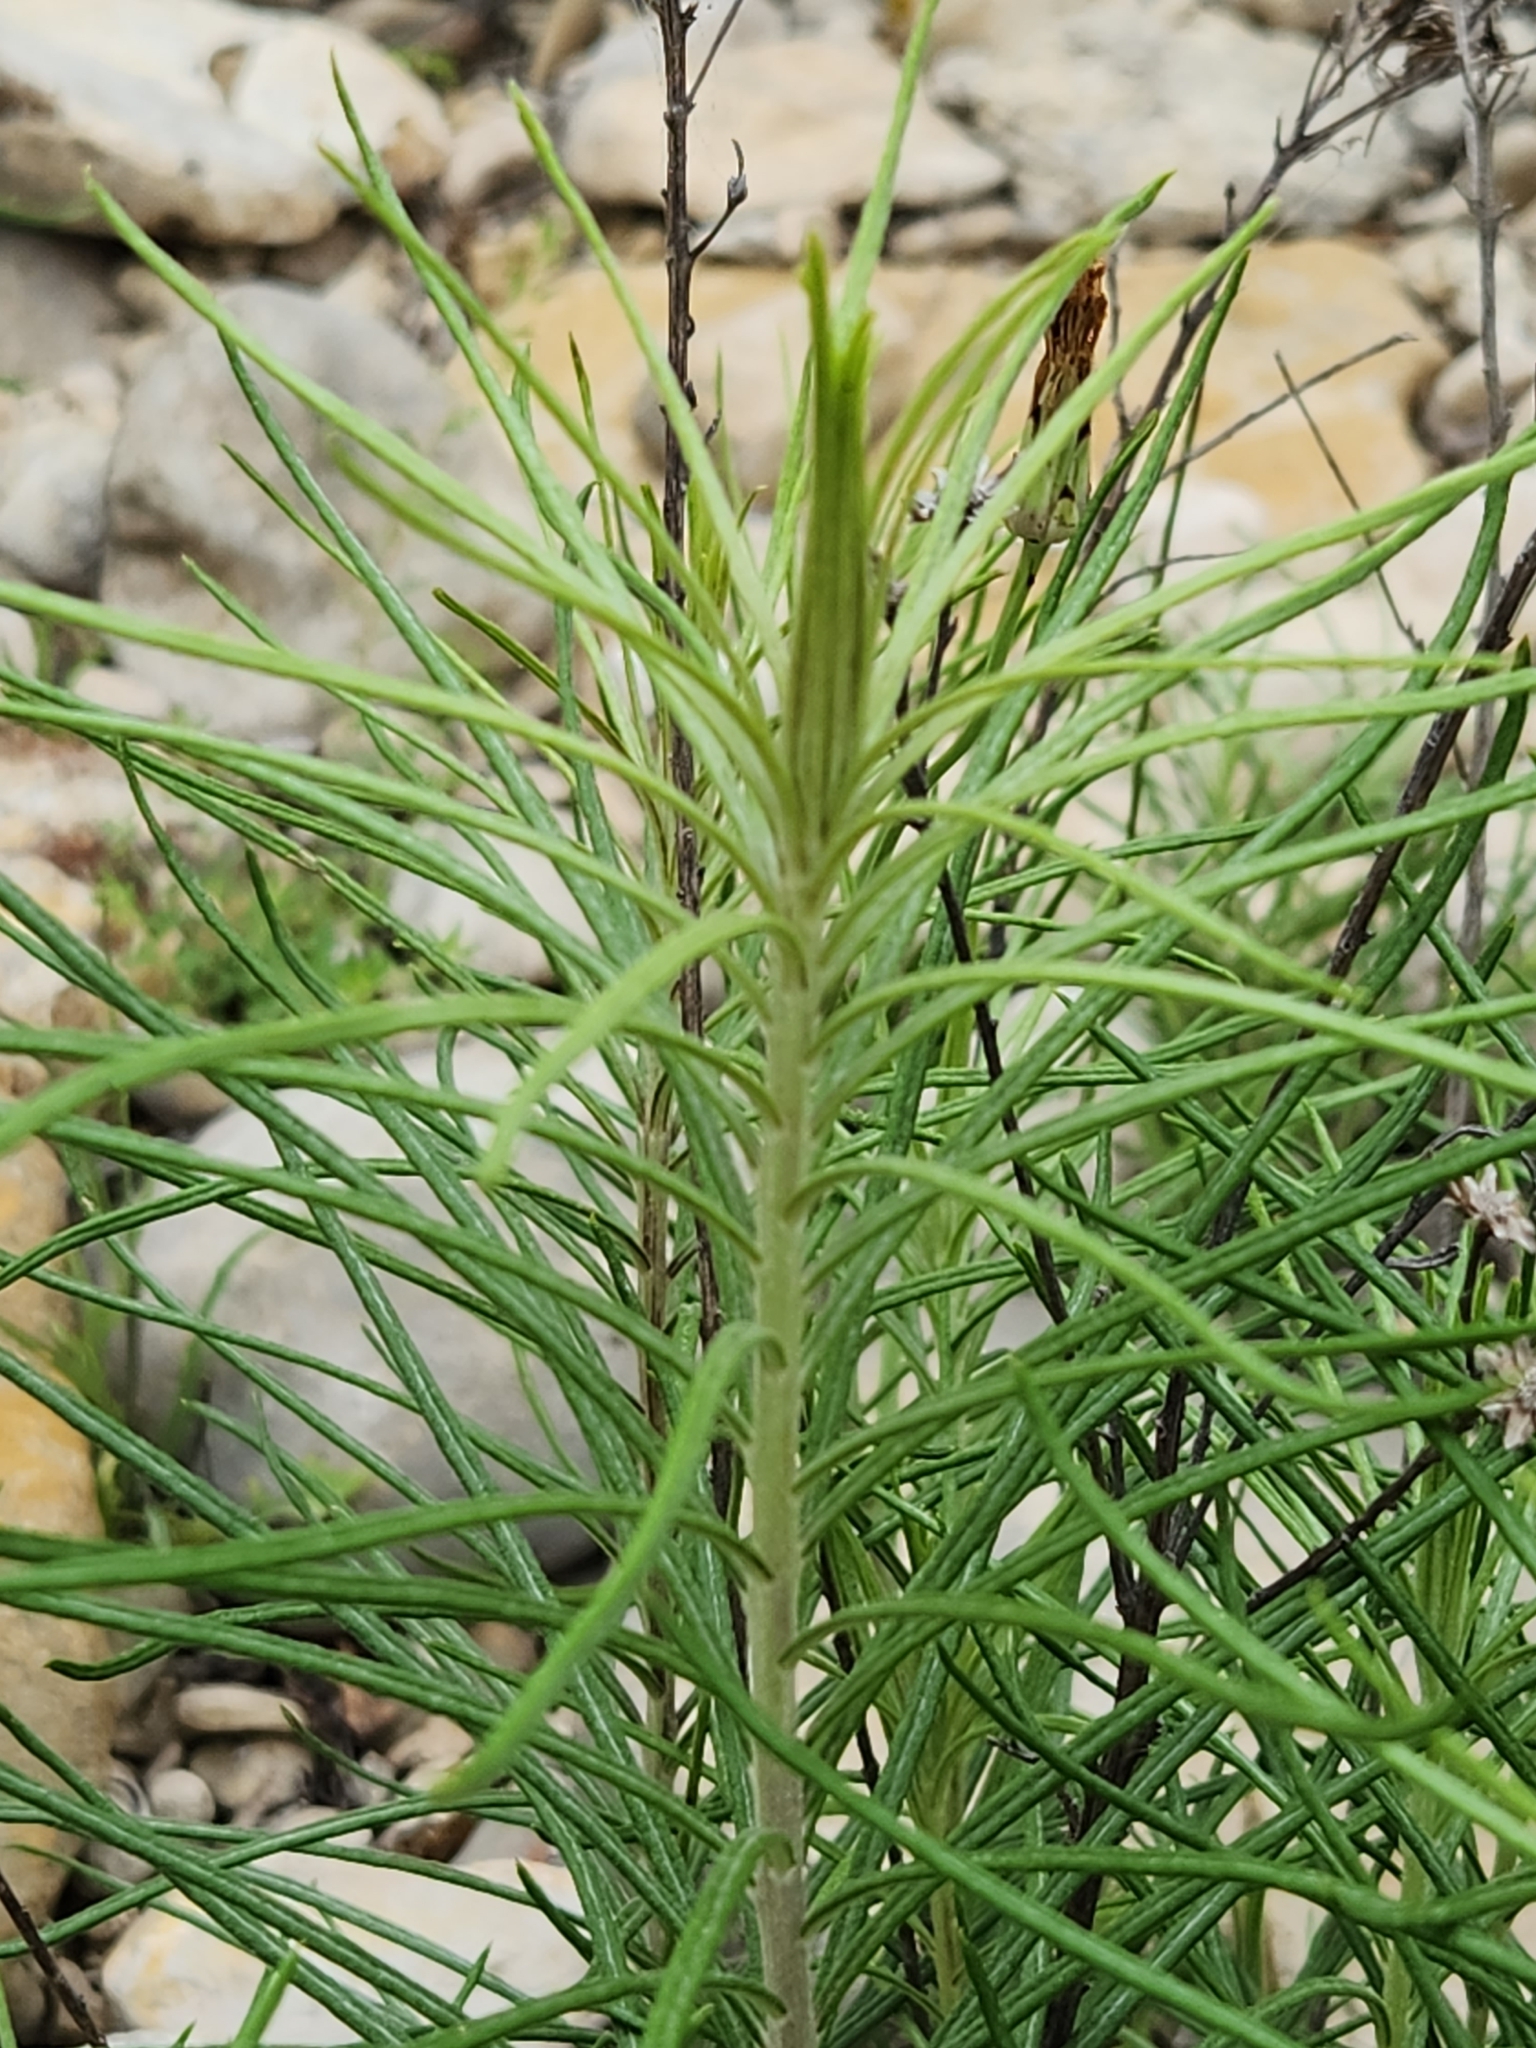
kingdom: Plantae
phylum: Tracheophyta
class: Magnoliopsida
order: Asterales
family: Asteraceae
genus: Vernonia
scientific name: Vernonia lindheimeri
